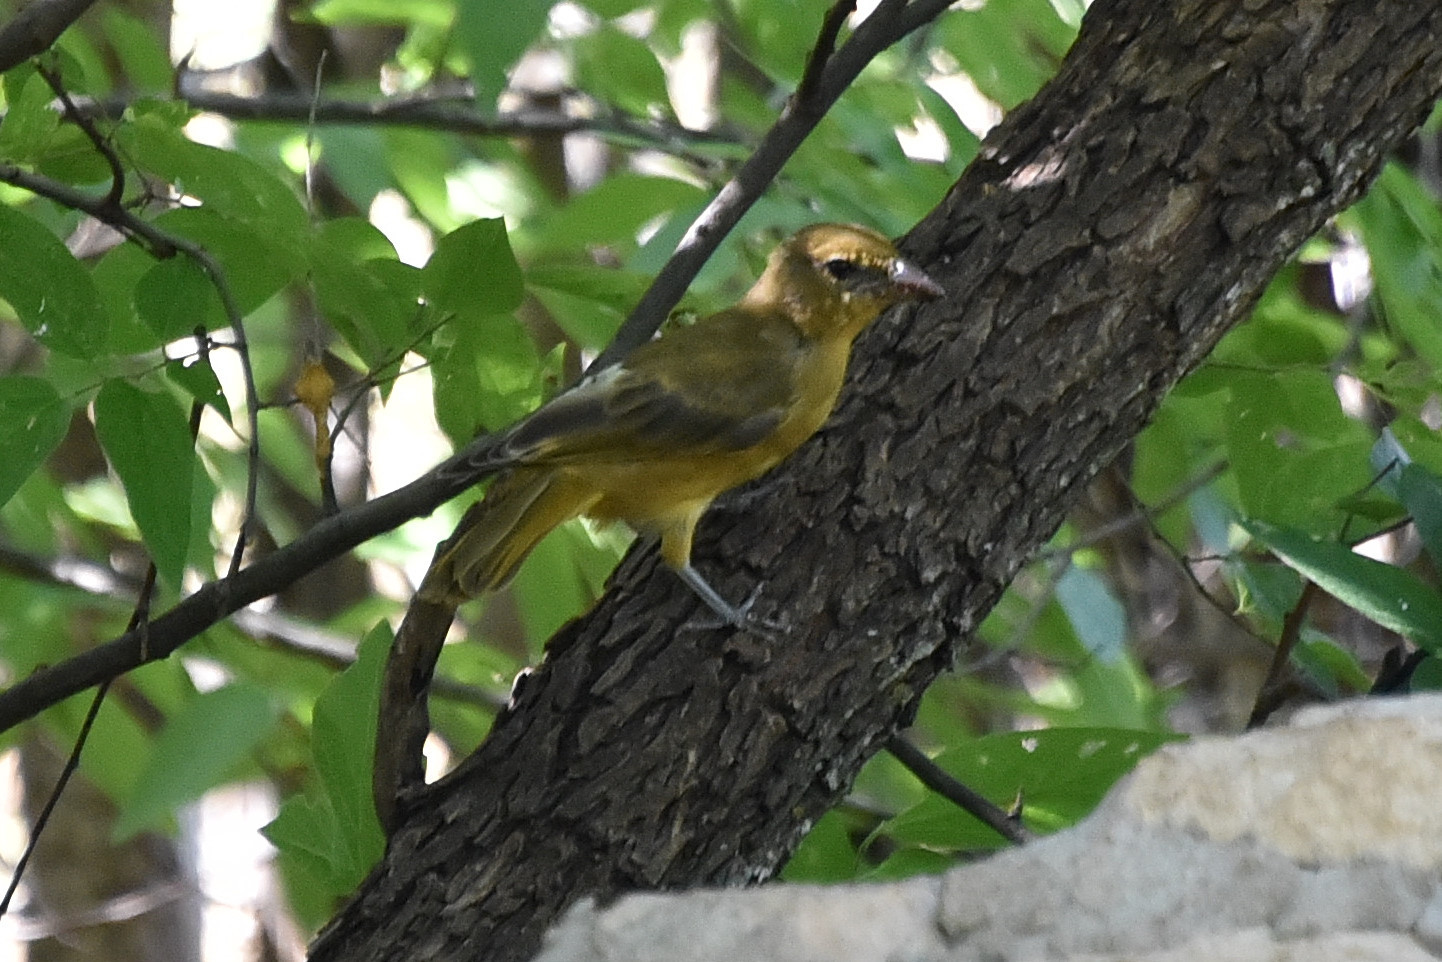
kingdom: Animalia
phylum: Chordata
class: Aves
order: Passeriformes
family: Cardinalidae
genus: Piranga
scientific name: Piranga rubra
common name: Summer tanager
